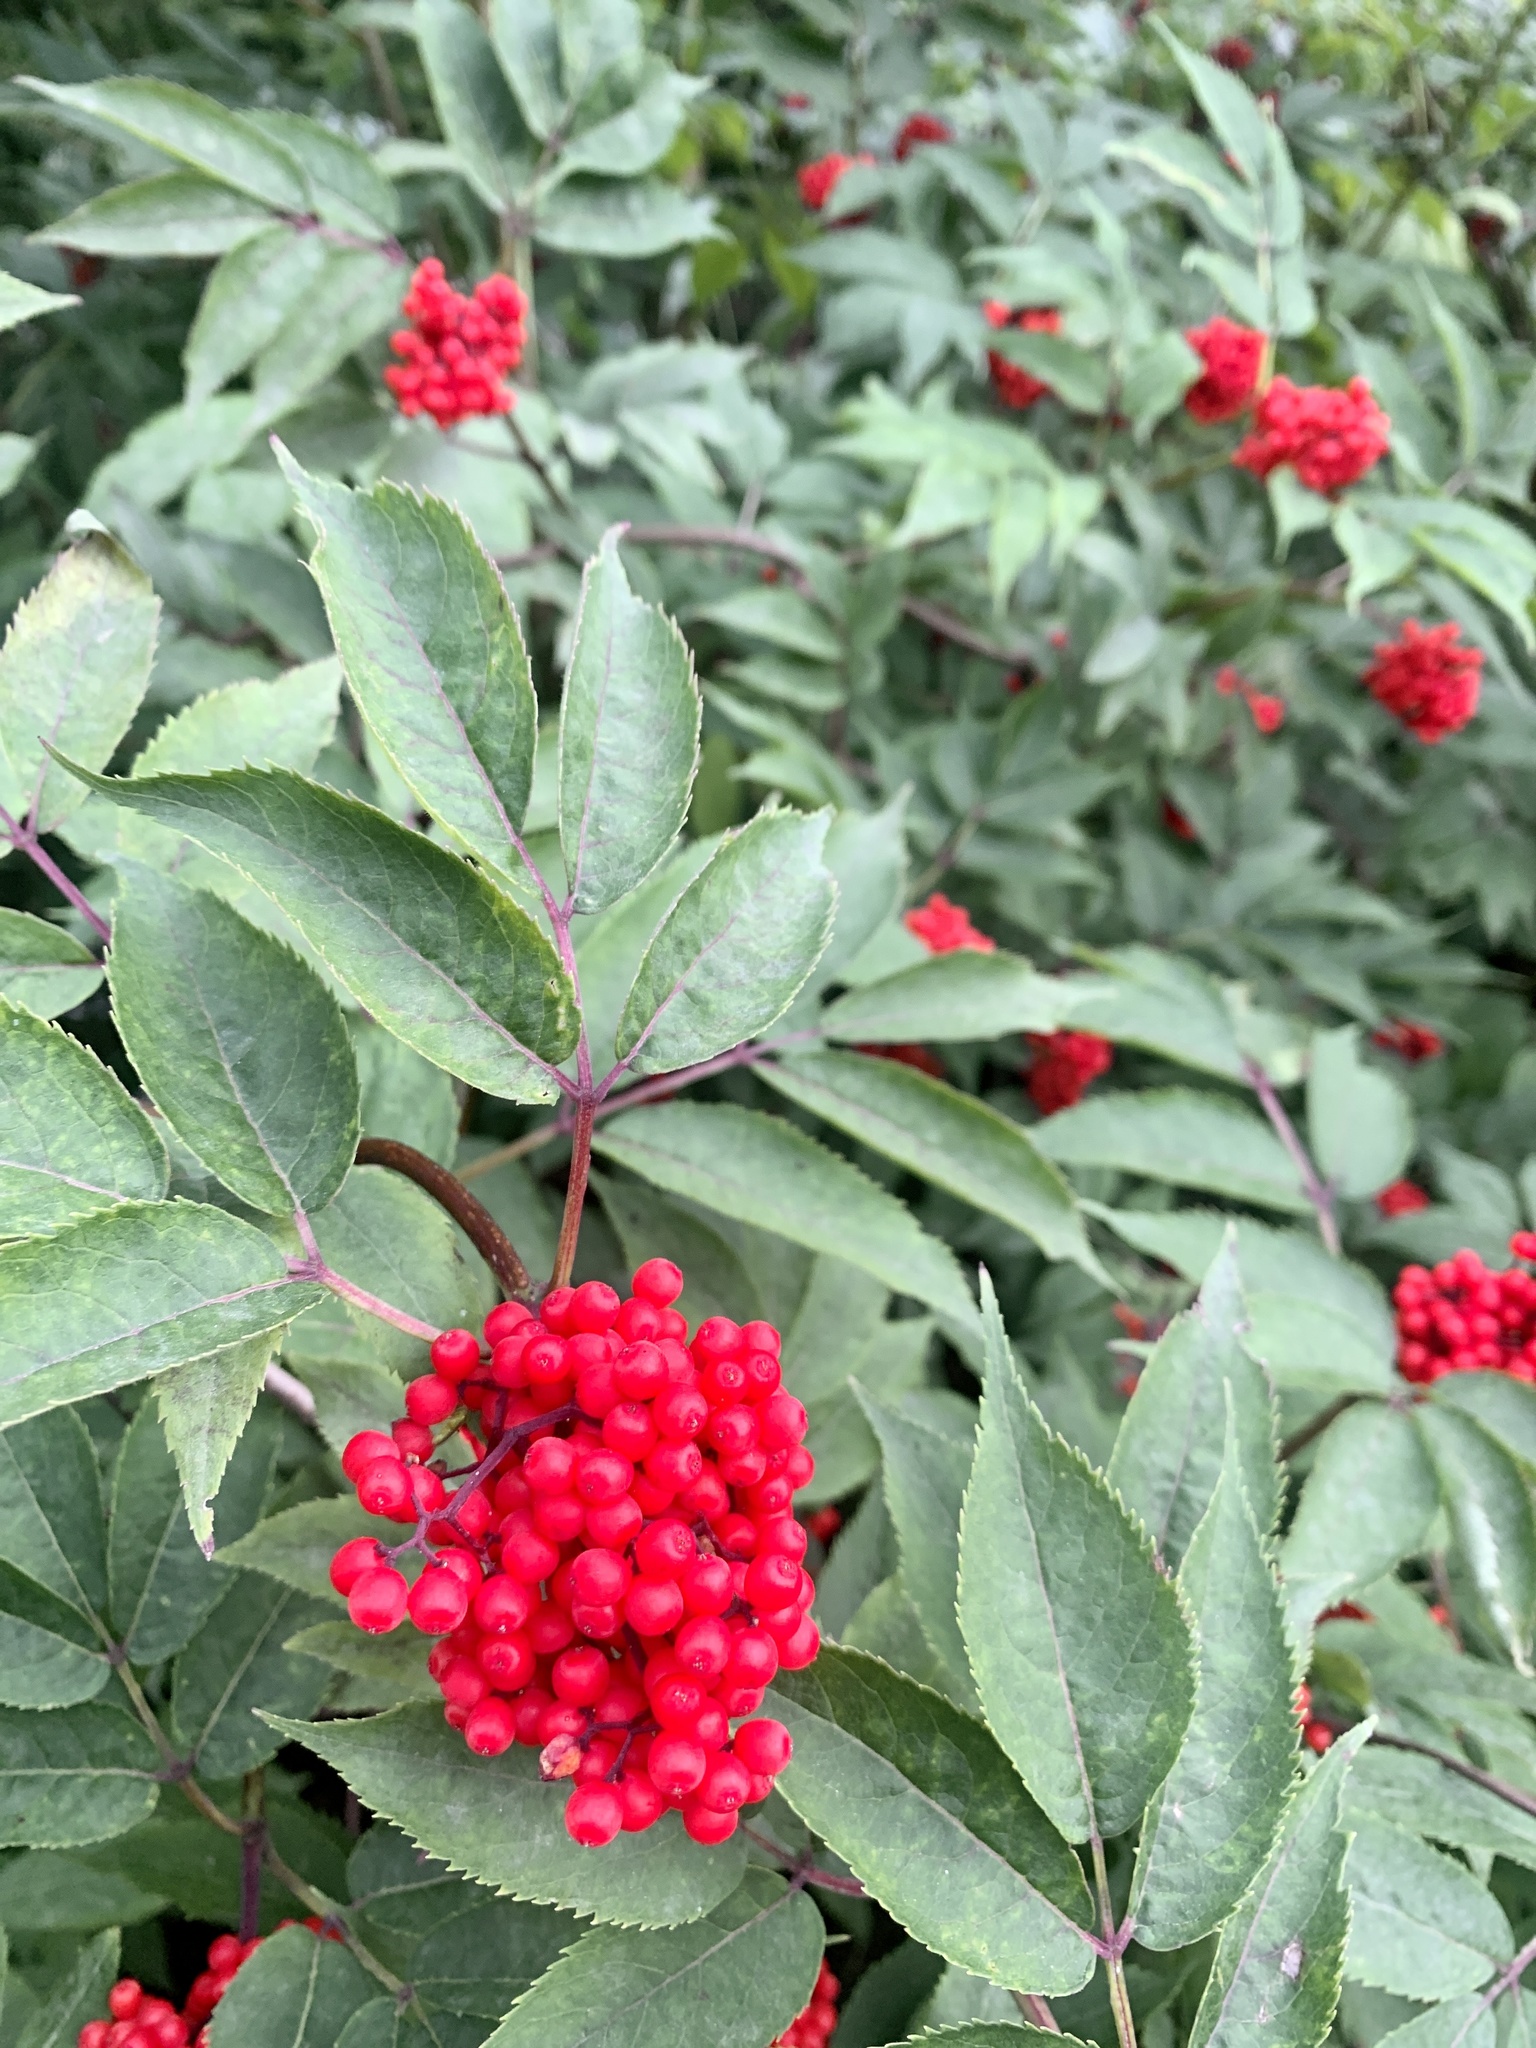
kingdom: Plantae
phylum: Tracheophyta
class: Magnoliopsida
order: Dipsacales
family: Viburnaceae
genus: Sambucus
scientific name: Sambucus racemosa
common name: Red-berried elder
